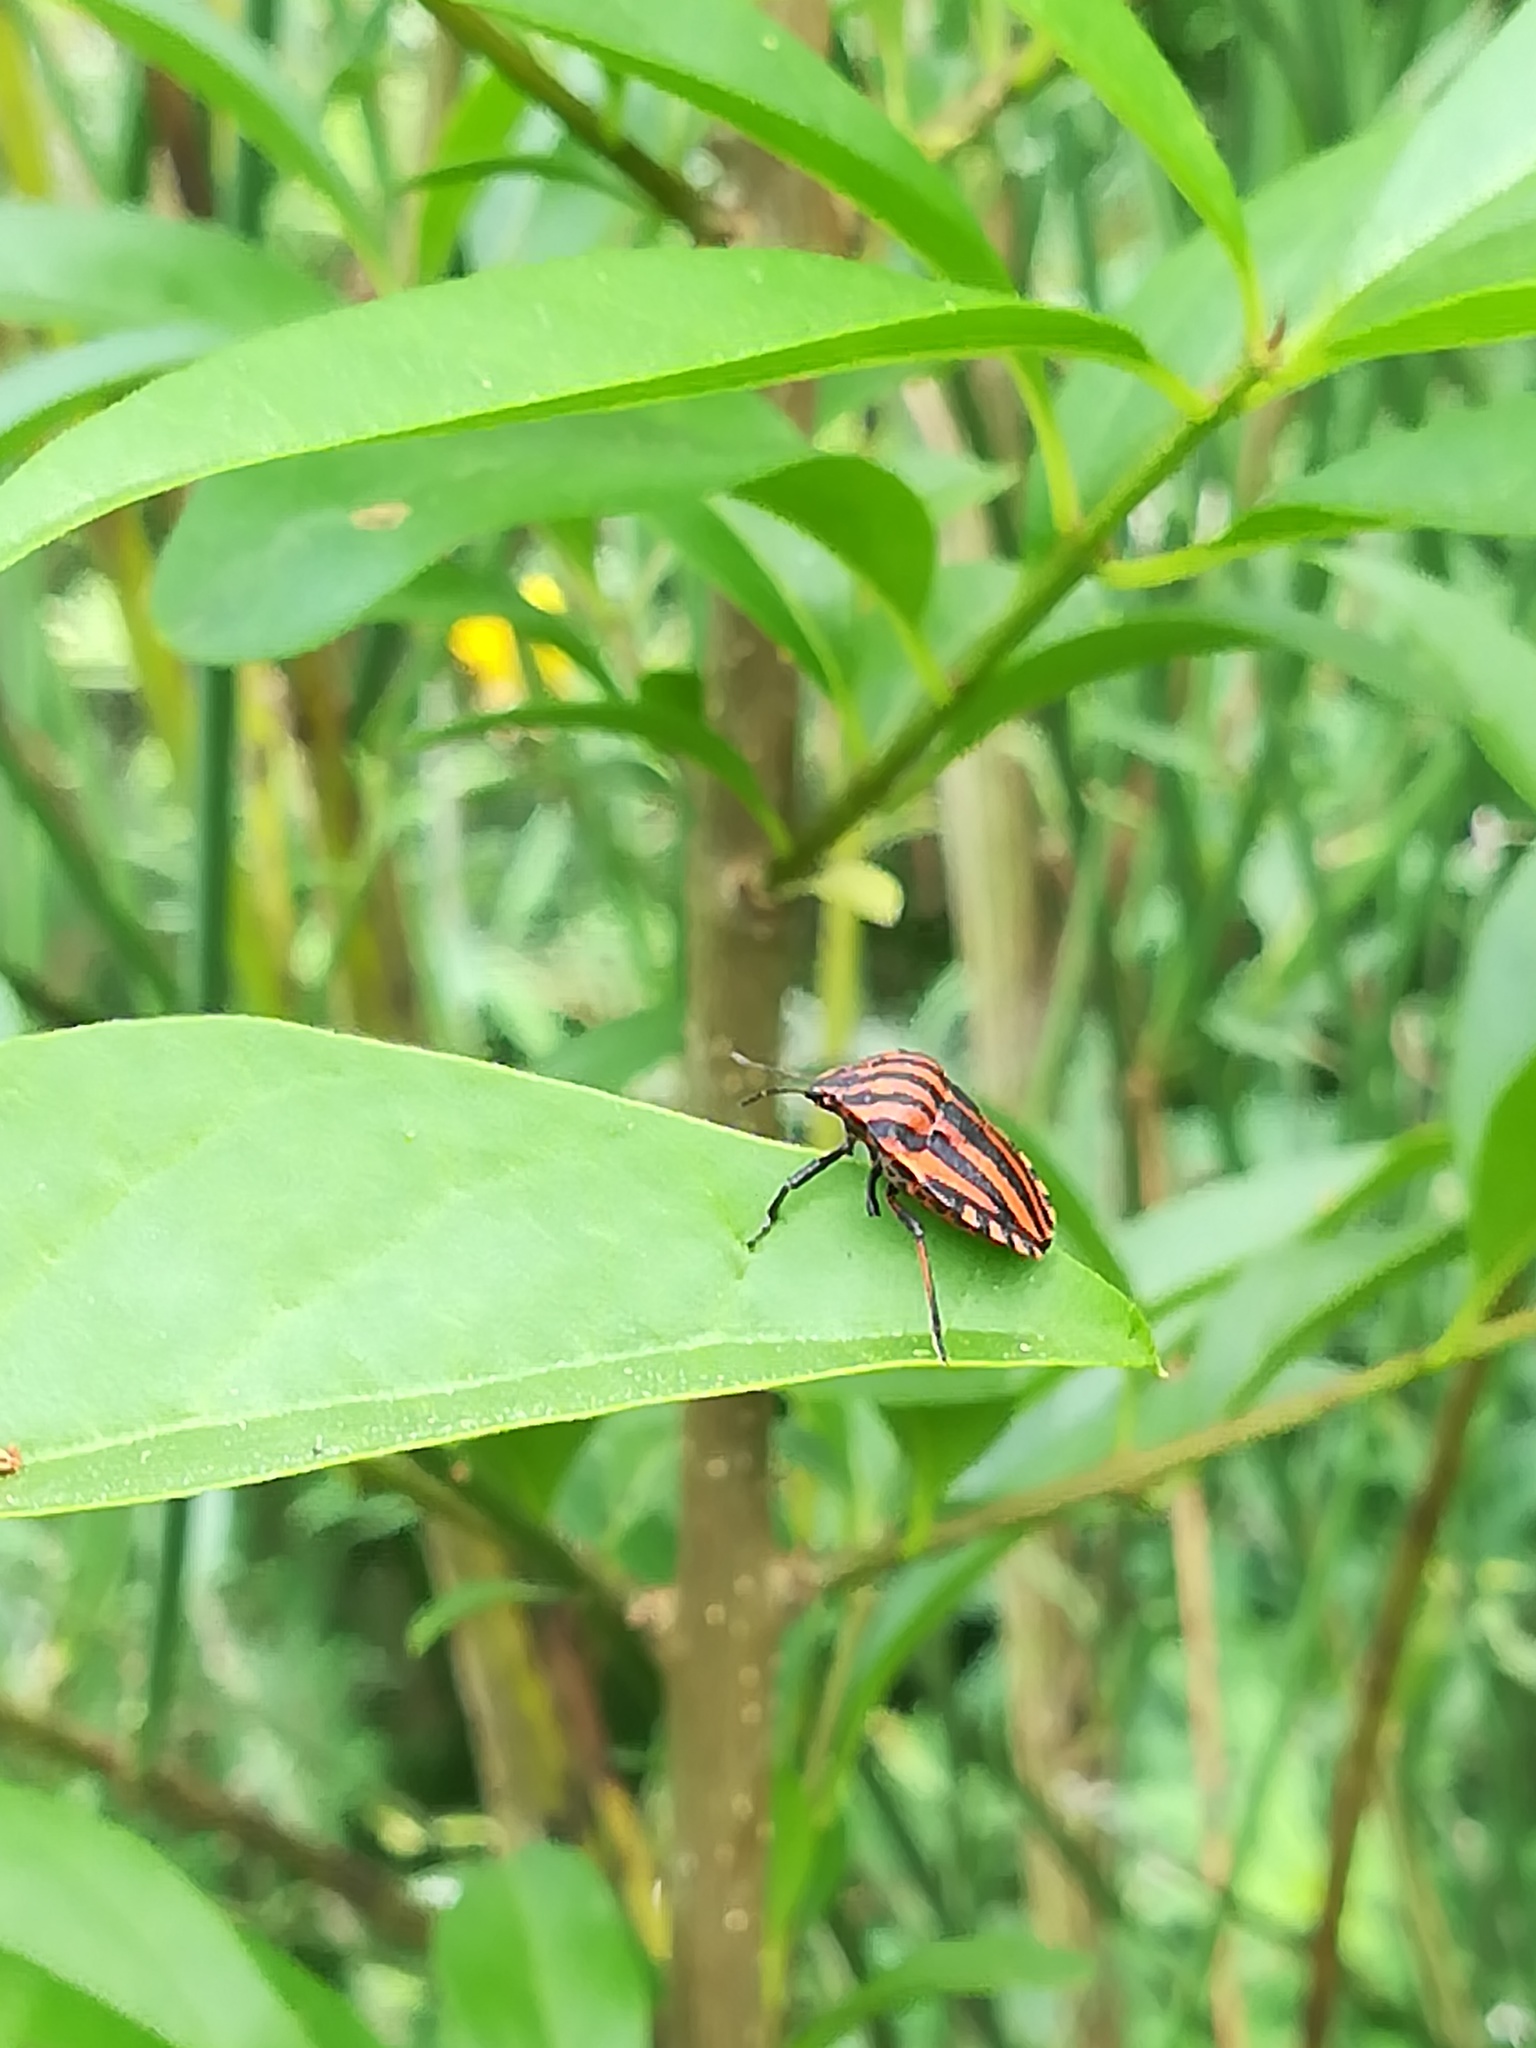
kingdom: Animalia
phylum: Arthropoda
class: Insecta
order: Hemiptera
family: Pentatomidae
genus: Graphosoma
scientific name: Graphosoma italicum
